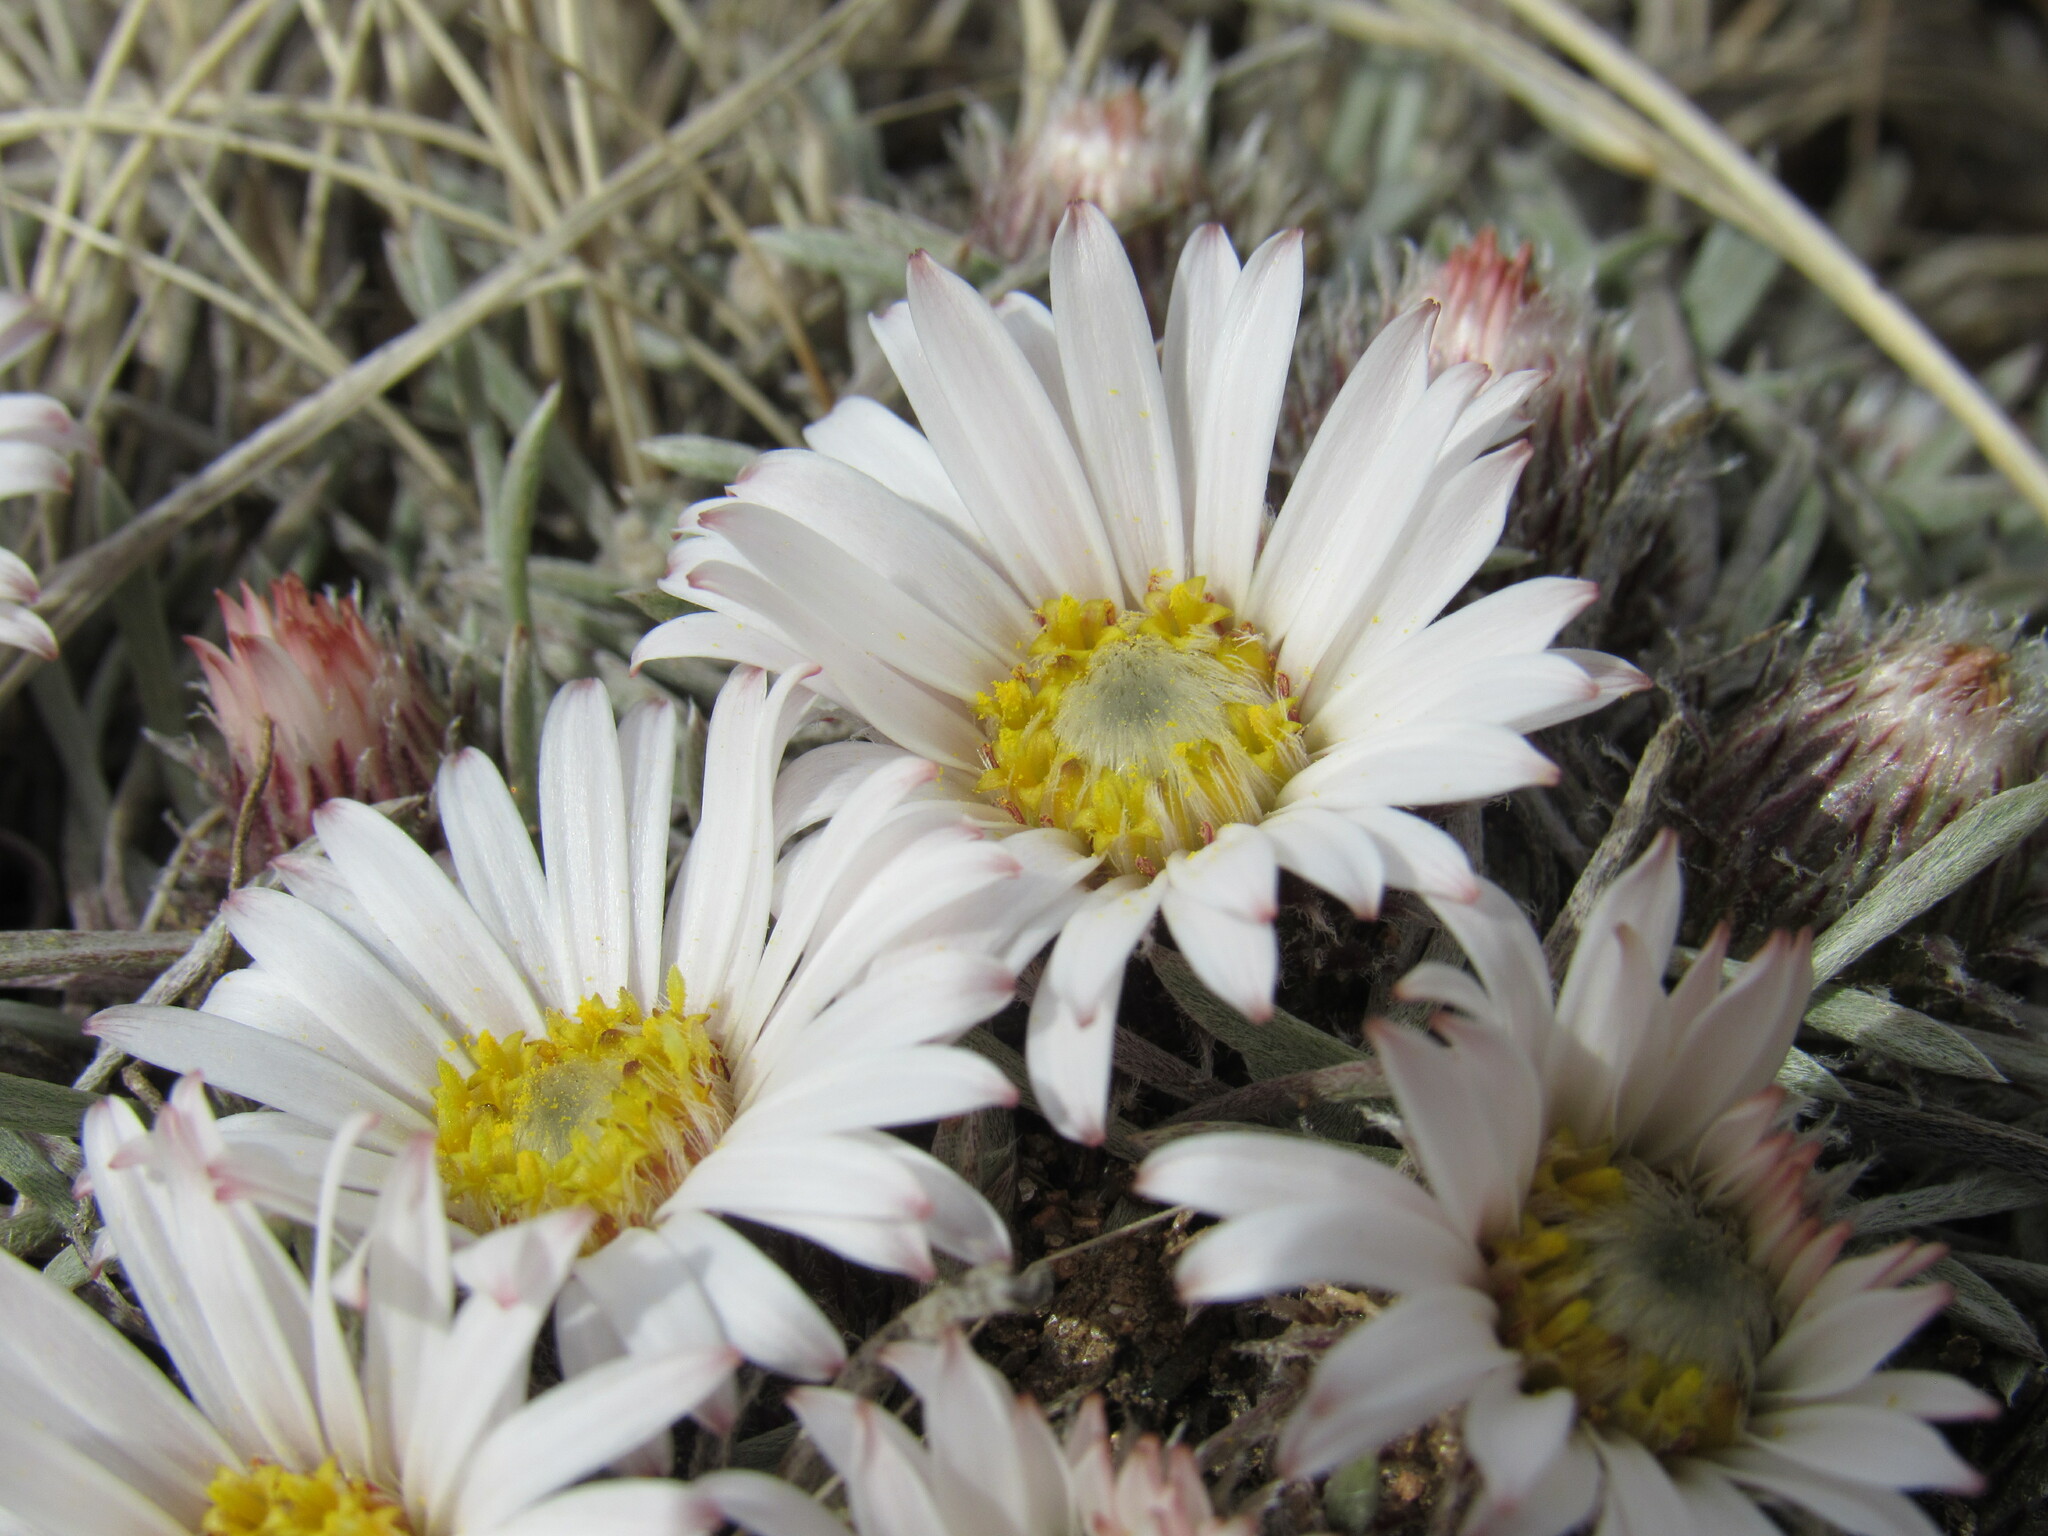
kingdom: Plantae
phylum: Tracheophyta
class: Magnoliopsida
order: Asterales
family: Asteraceae
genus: Townsendia
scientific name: Townsendia hookeri
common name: Hooker's townsend daisy
